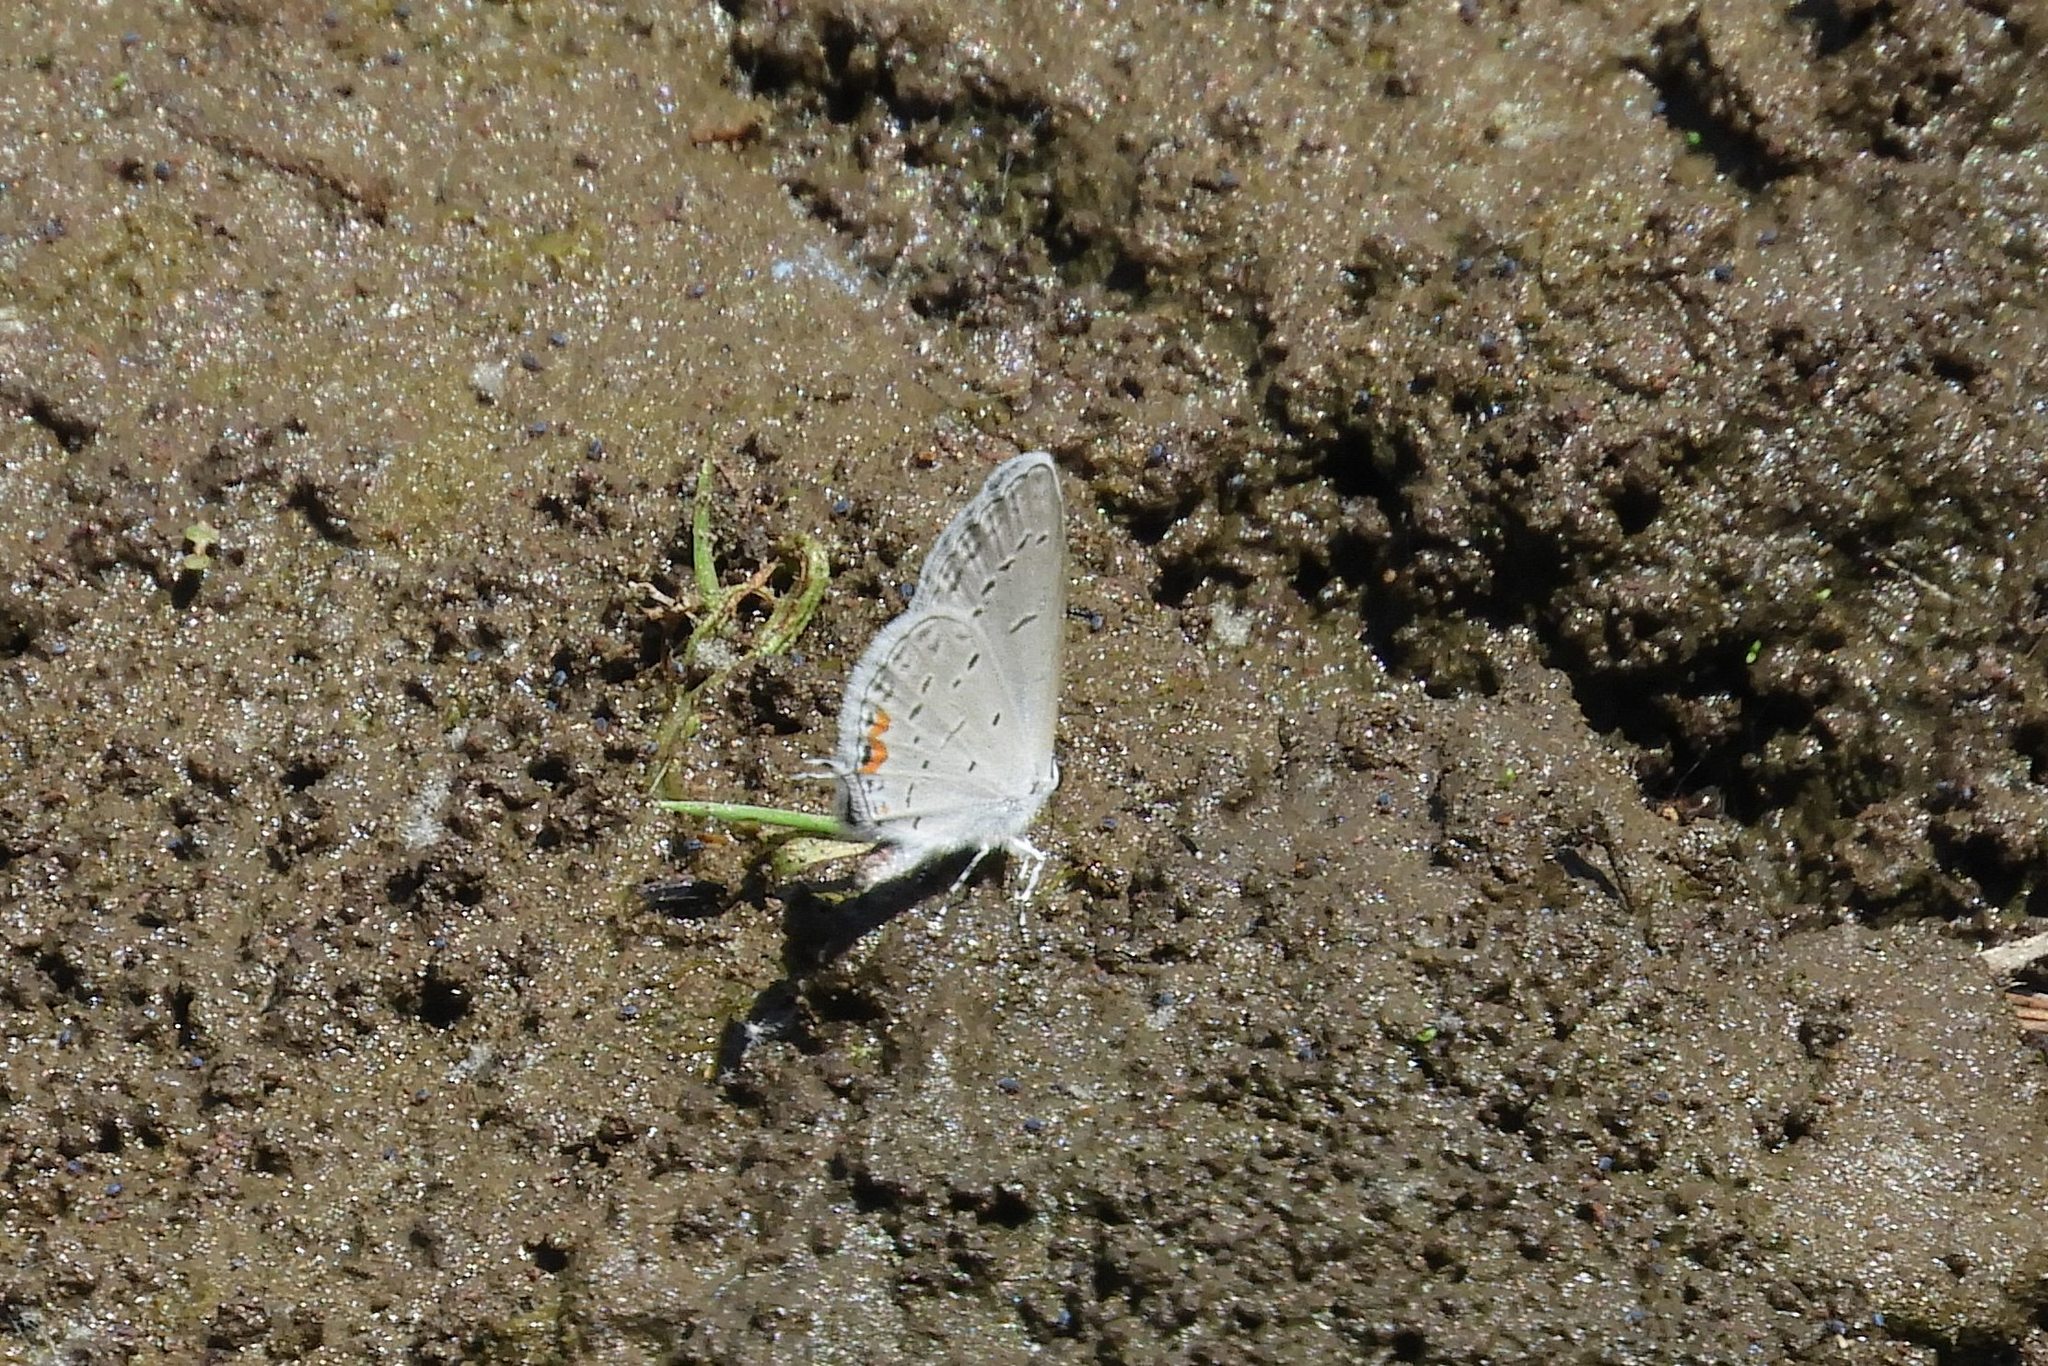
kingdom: Animalia
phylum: Arthropoda
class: Insecta
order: Lepidoptera
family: Lycaenidae
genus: Elkalyce
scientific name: Elkalyce comyntas
